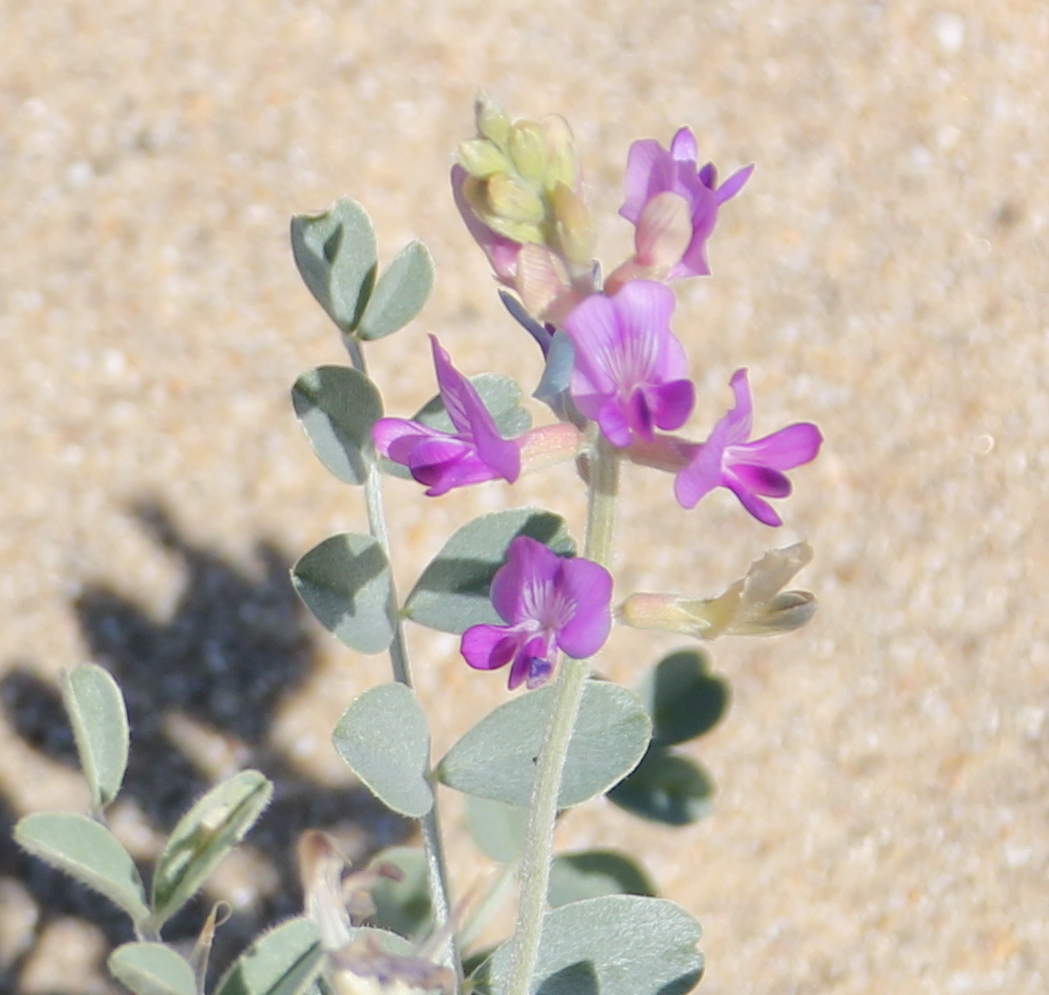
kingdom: Plantae
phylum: Tracheophyta
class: Magnoliopsida
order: Fabales
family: Fabaceae
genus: Astragalus
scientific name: Astragalus lentiginosus
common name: Freckled milkvetch
